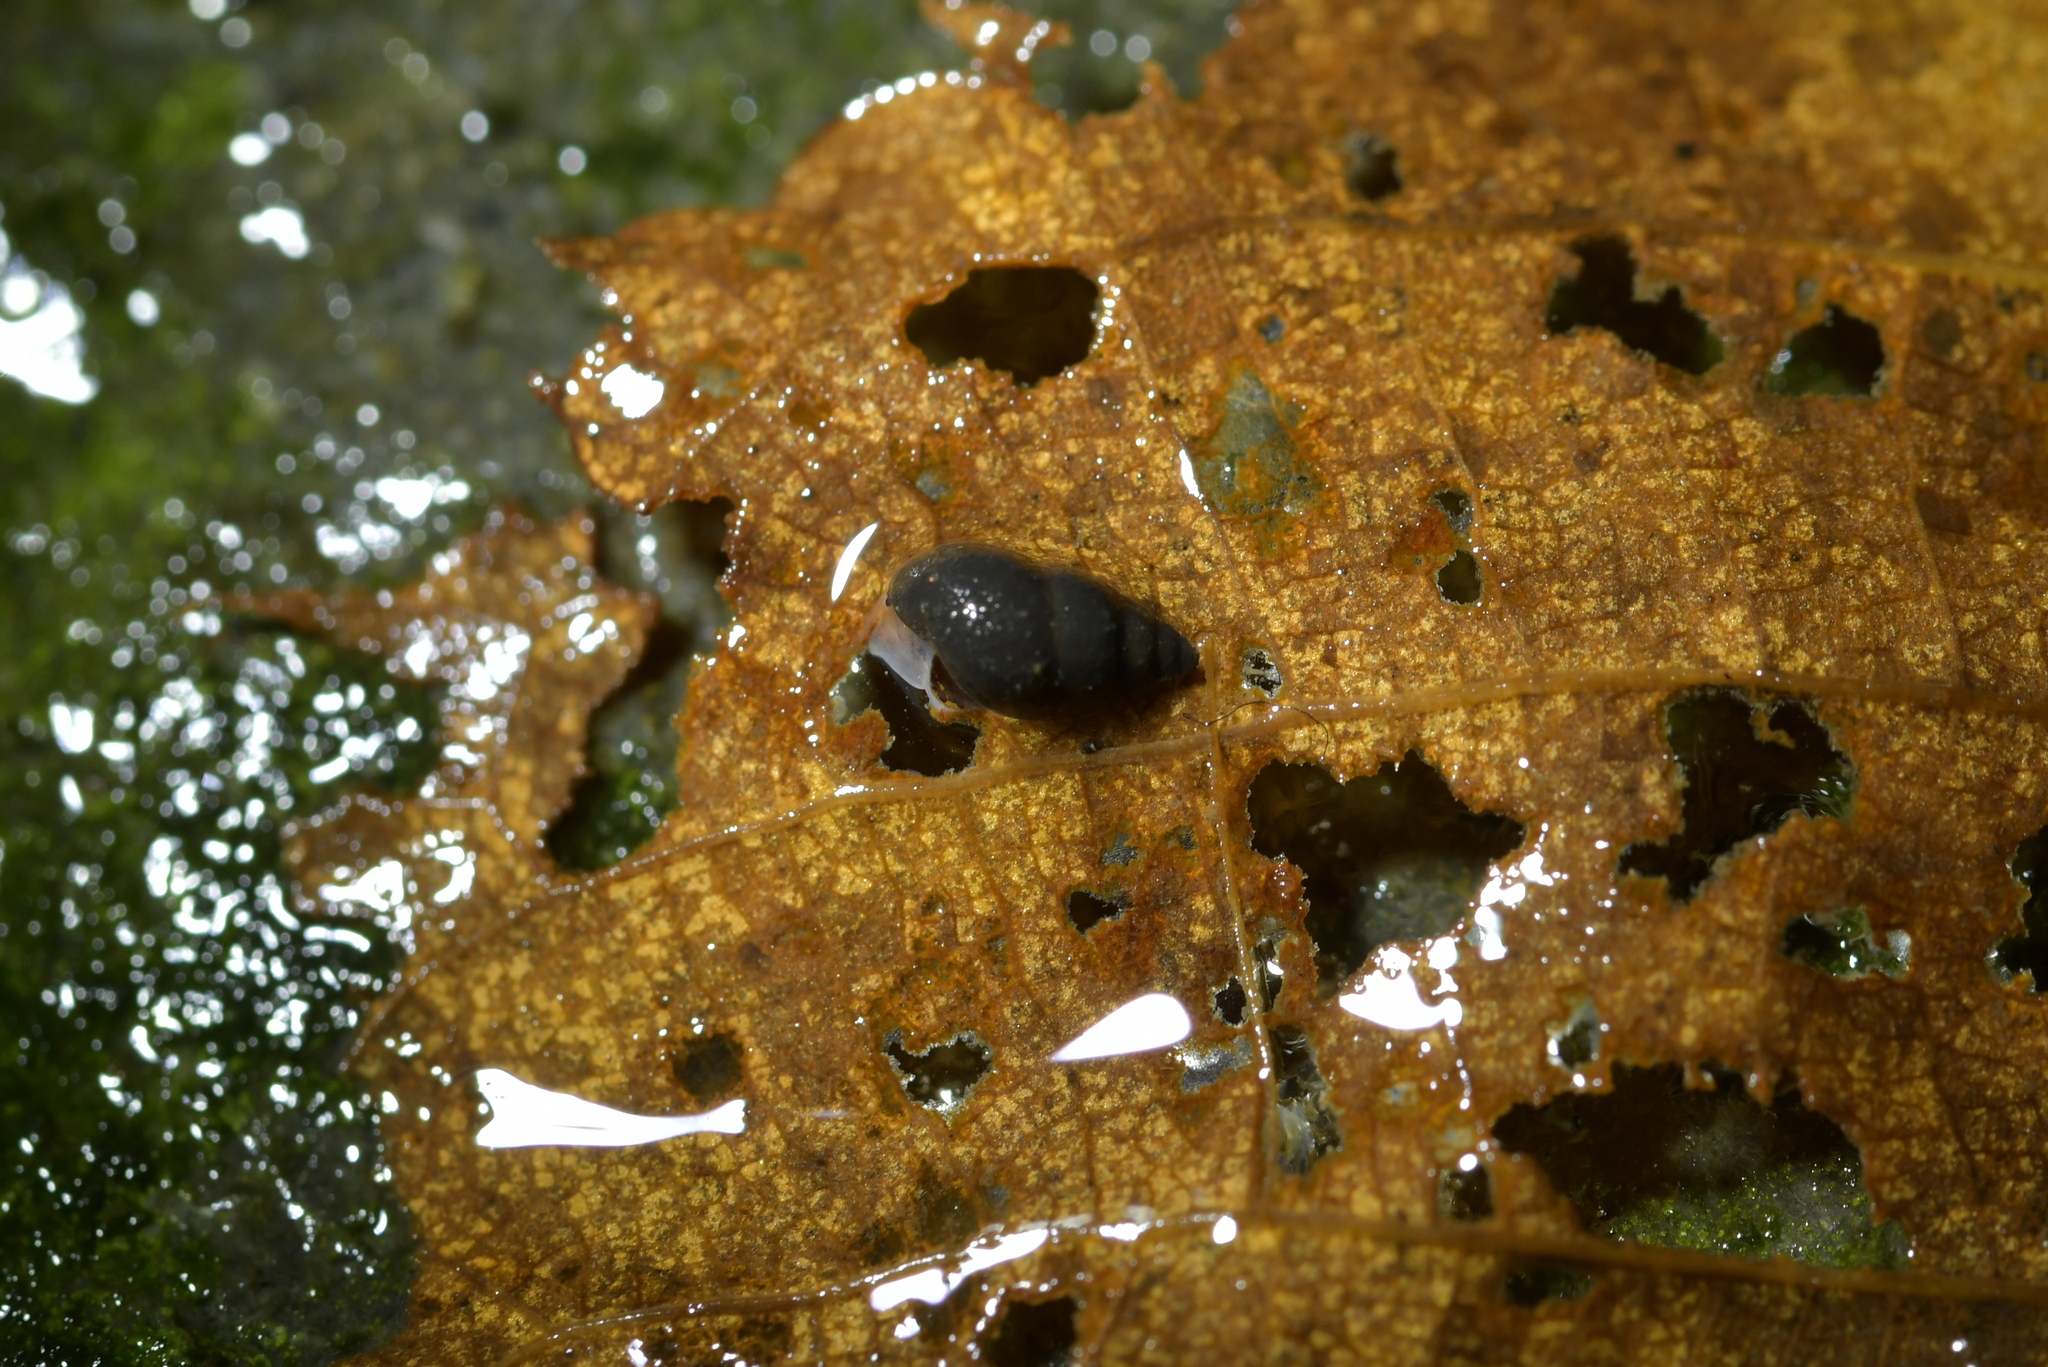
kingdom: Animalia
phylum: Mollusca
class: Gastropoda
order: Littorinimorpha
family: Tateidae
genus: Potamopyrgus
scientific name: Potamopyrgus antipodarum
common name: Jenkins' spire snail
